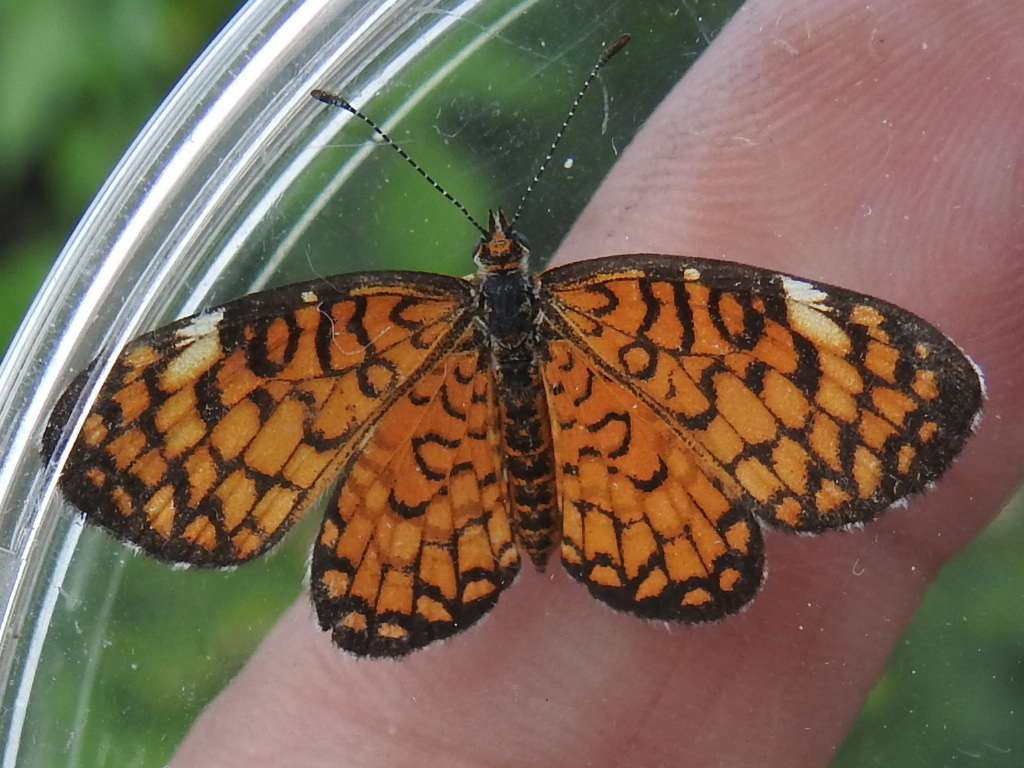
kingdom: Animalia
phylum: Arthropoda
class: Insecta
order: Lepidoptera
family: Nymphalidae
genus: Dymasia
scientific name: Dymasia dymas
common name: Tiny checkerspot
